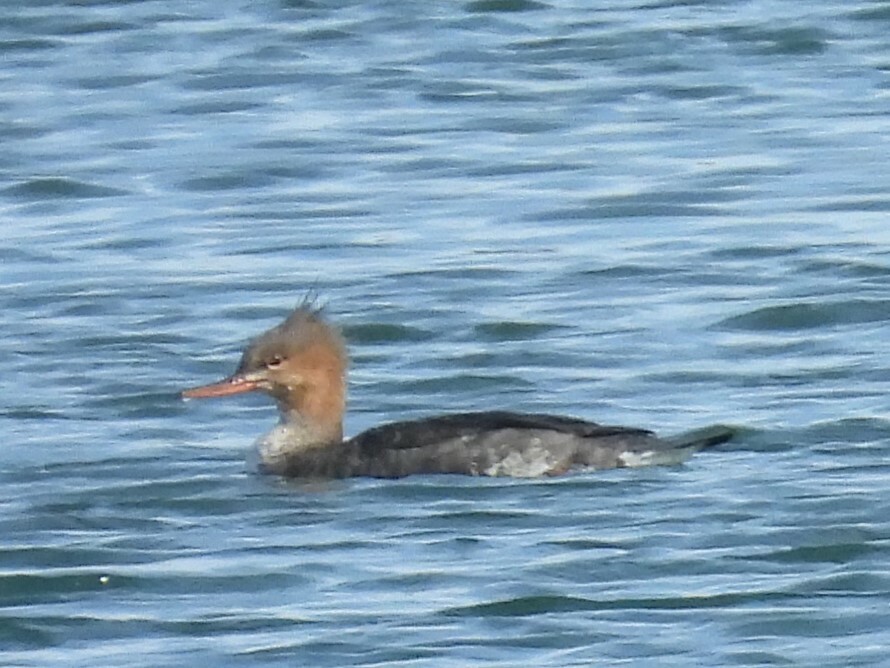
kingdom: Animalia
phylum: Chordata
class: Aves
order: Anseriformes
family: Anatidae
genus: Mergus
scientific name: Mergus serrator
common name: Red-breasted merganser
